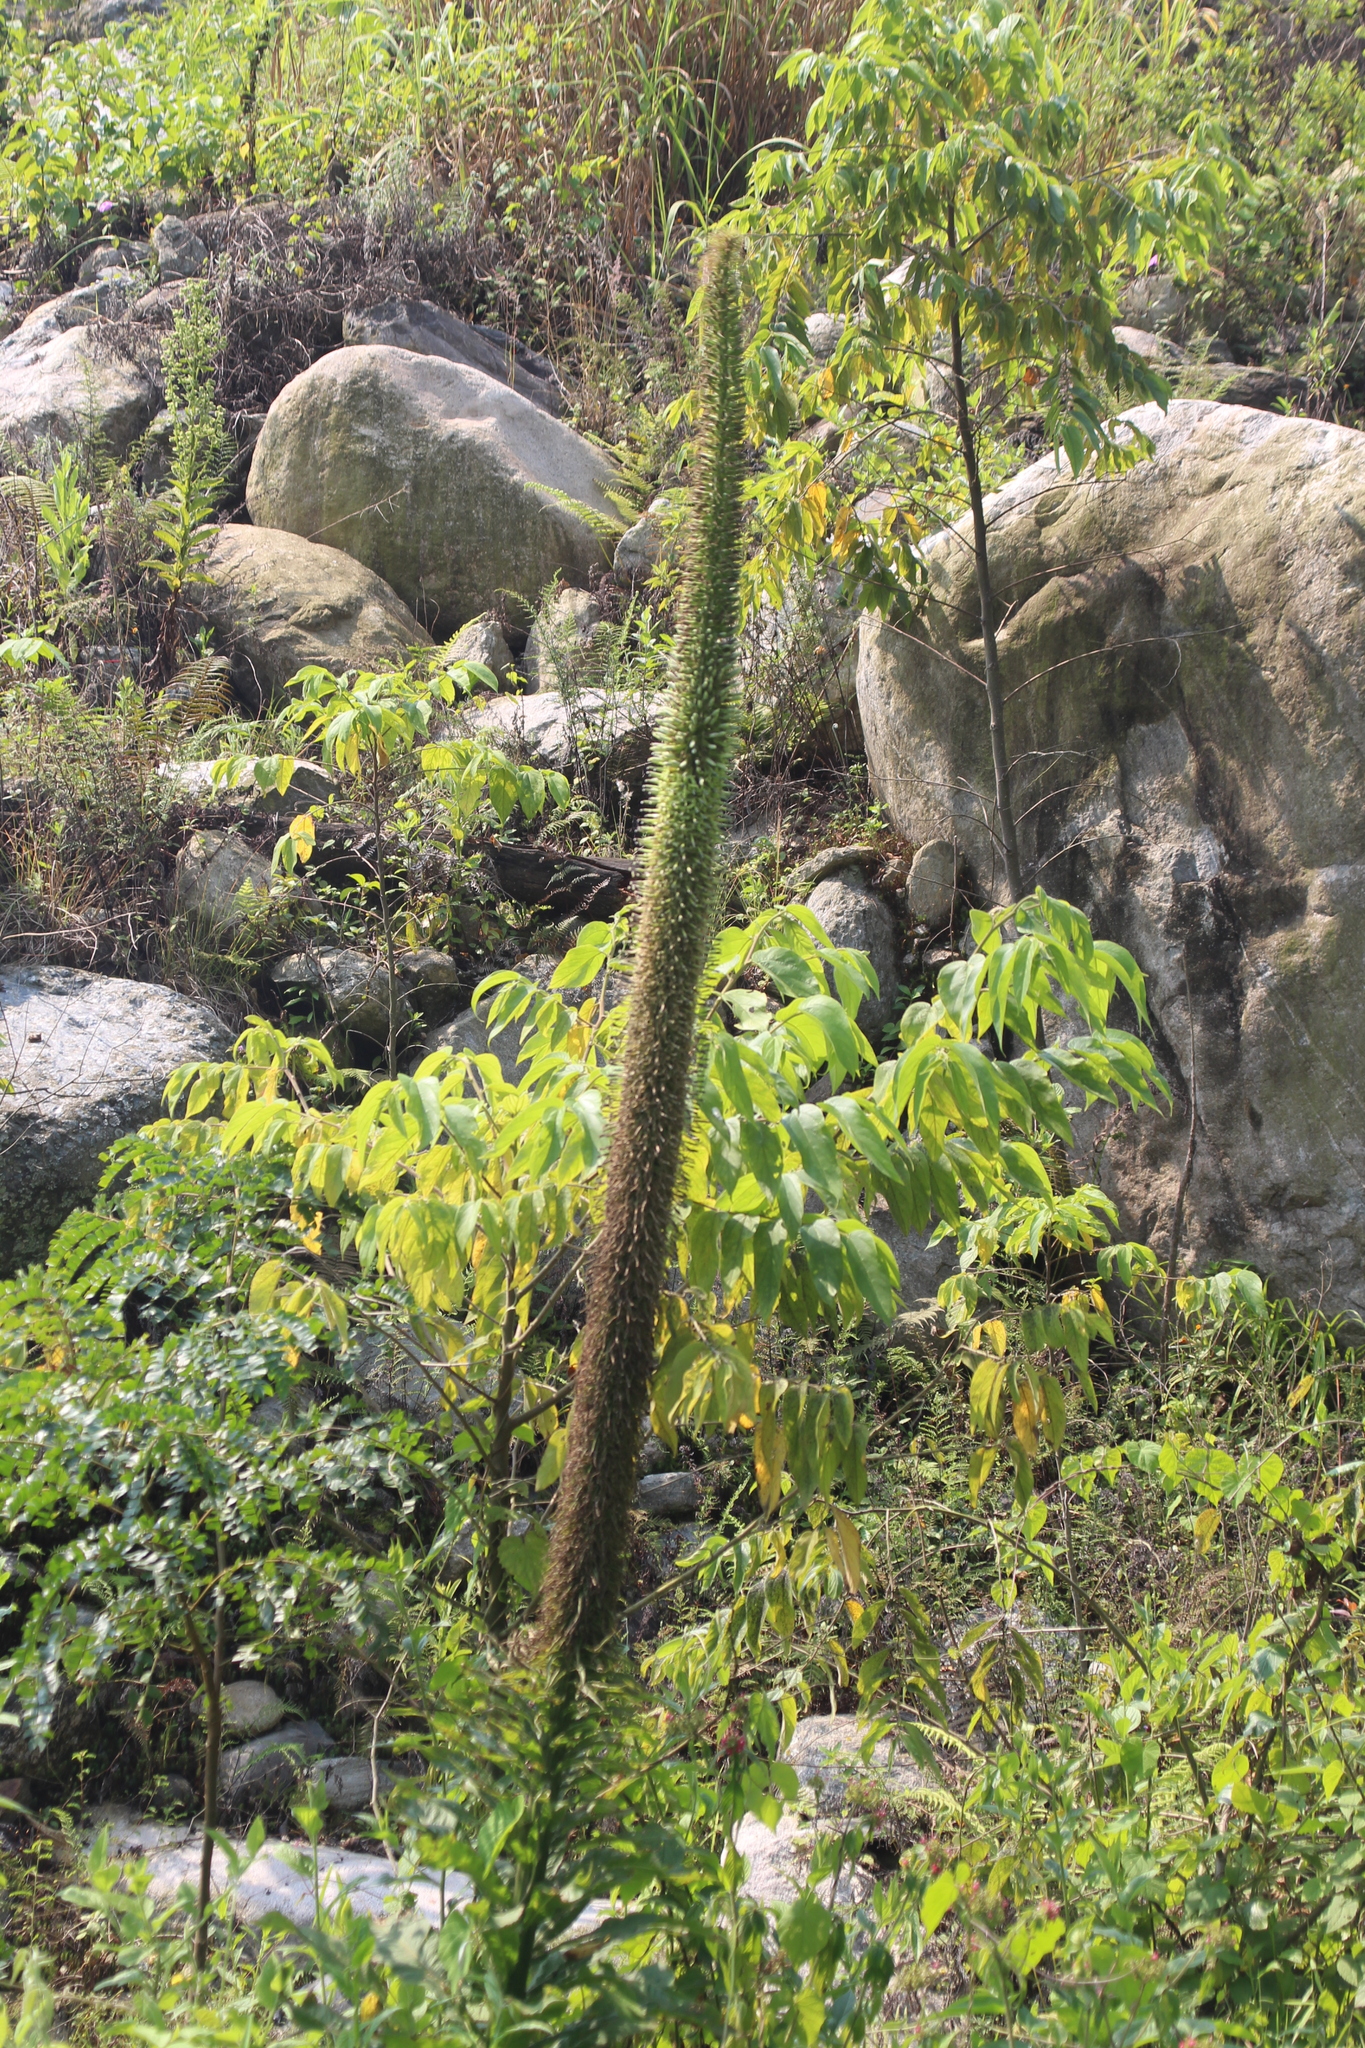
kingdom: Plantae
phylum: Tracheophyta
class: Magnoliopsida
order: Asterales
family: Campanulaceae
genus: Lobelia
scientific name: Lobelia giberroa
